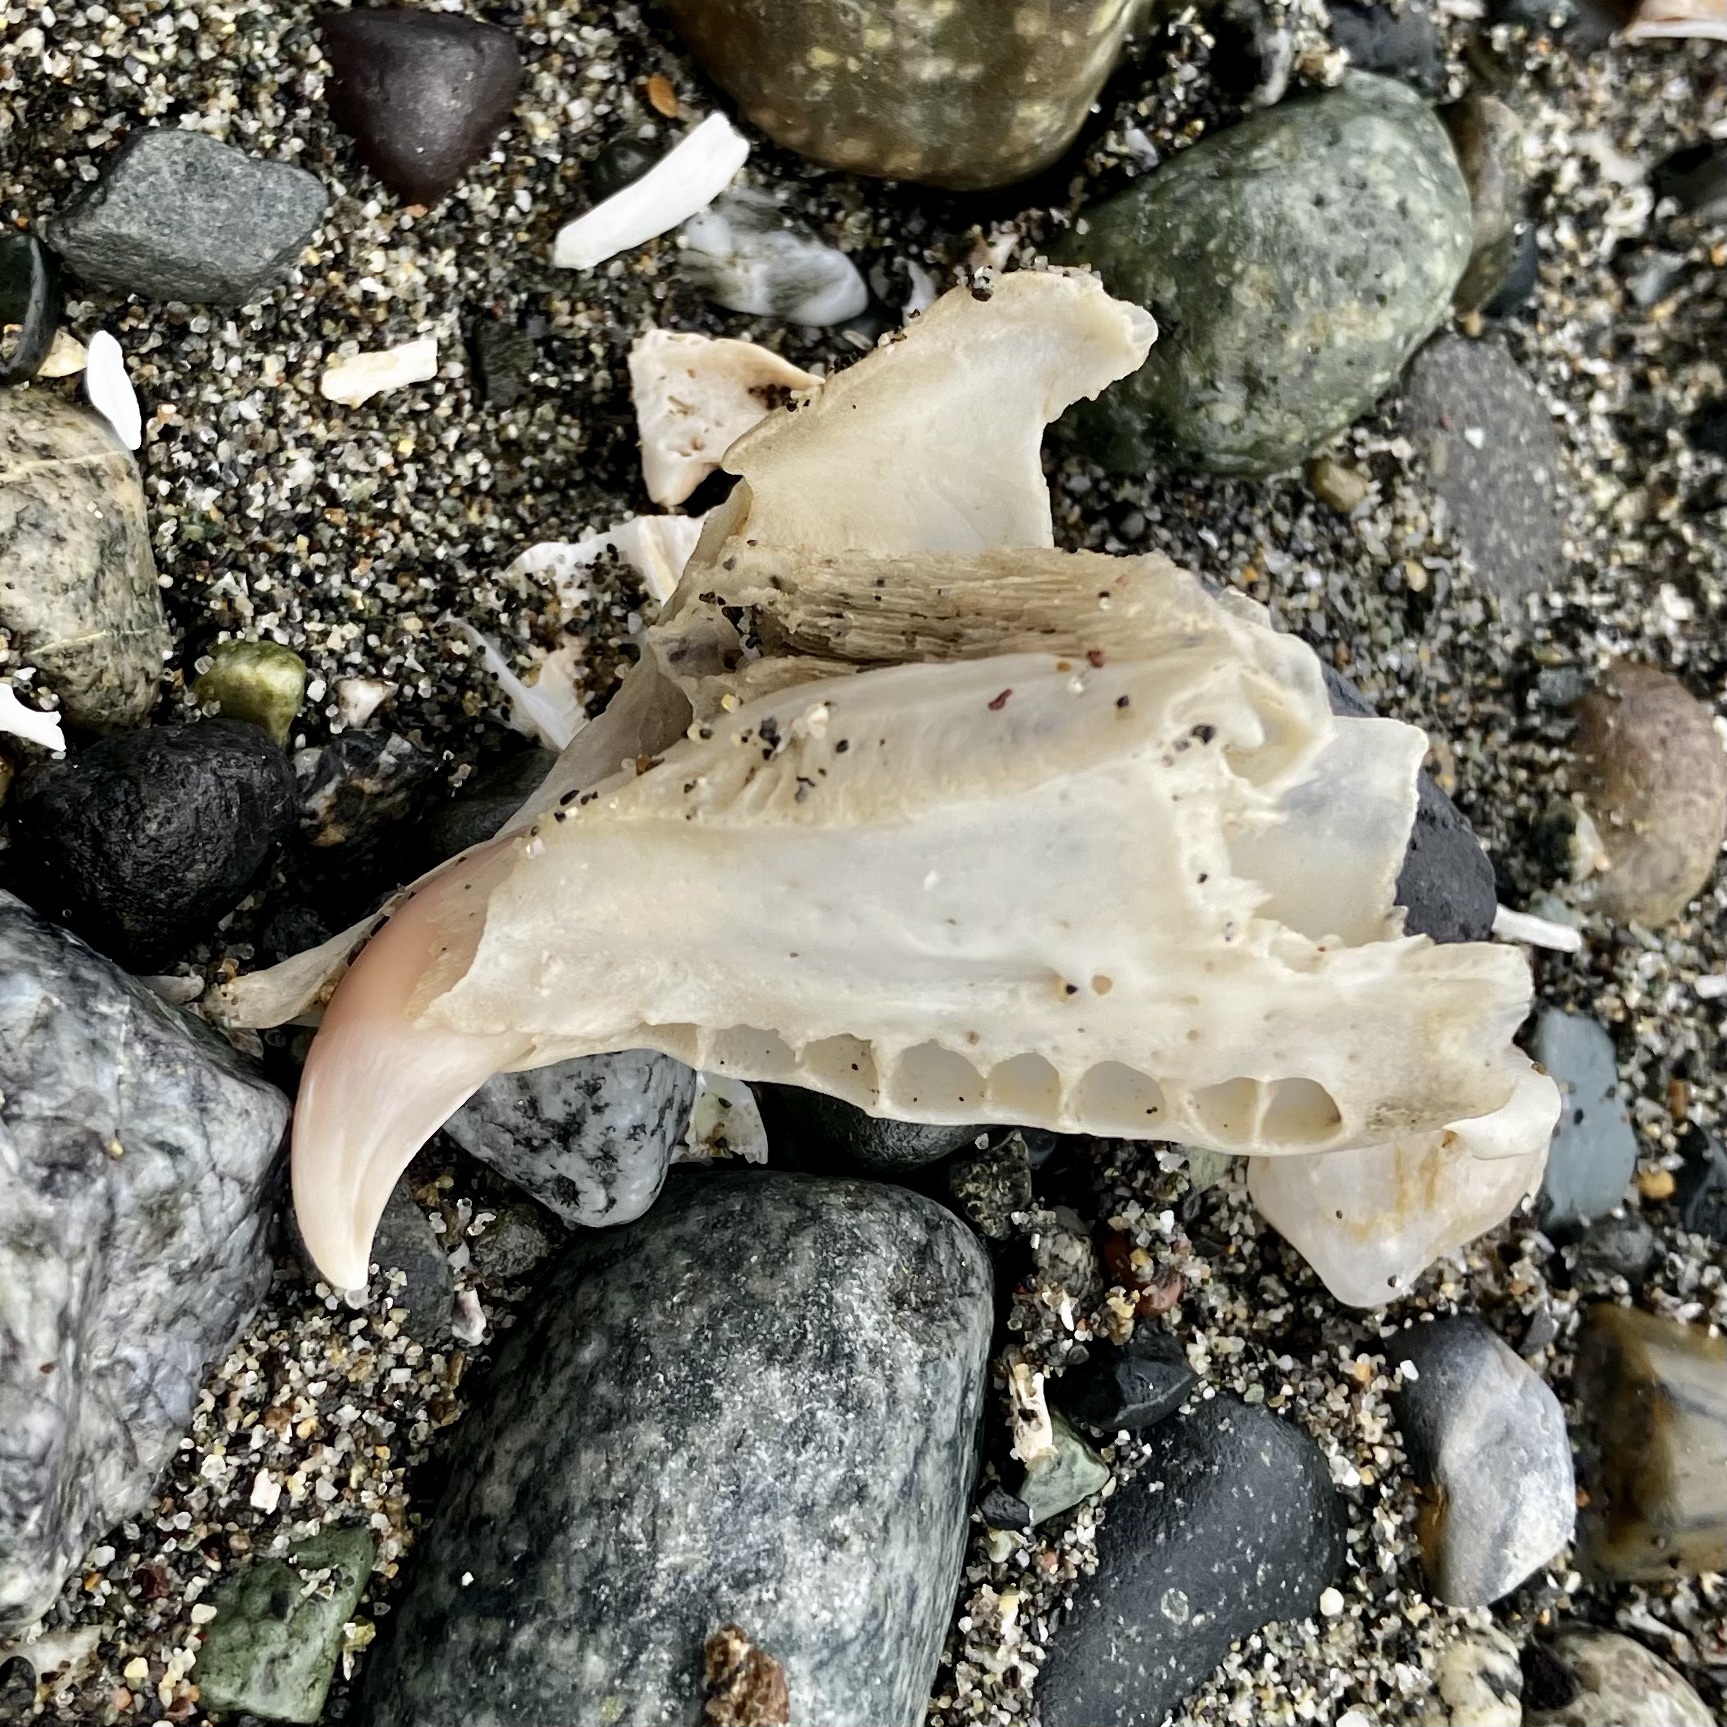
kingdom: Animalia
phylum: Chordata
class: Mammalia
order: Carnivora
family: Phocidae
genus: Phoca
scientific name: Phoca vitulina
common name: Harbor seal
